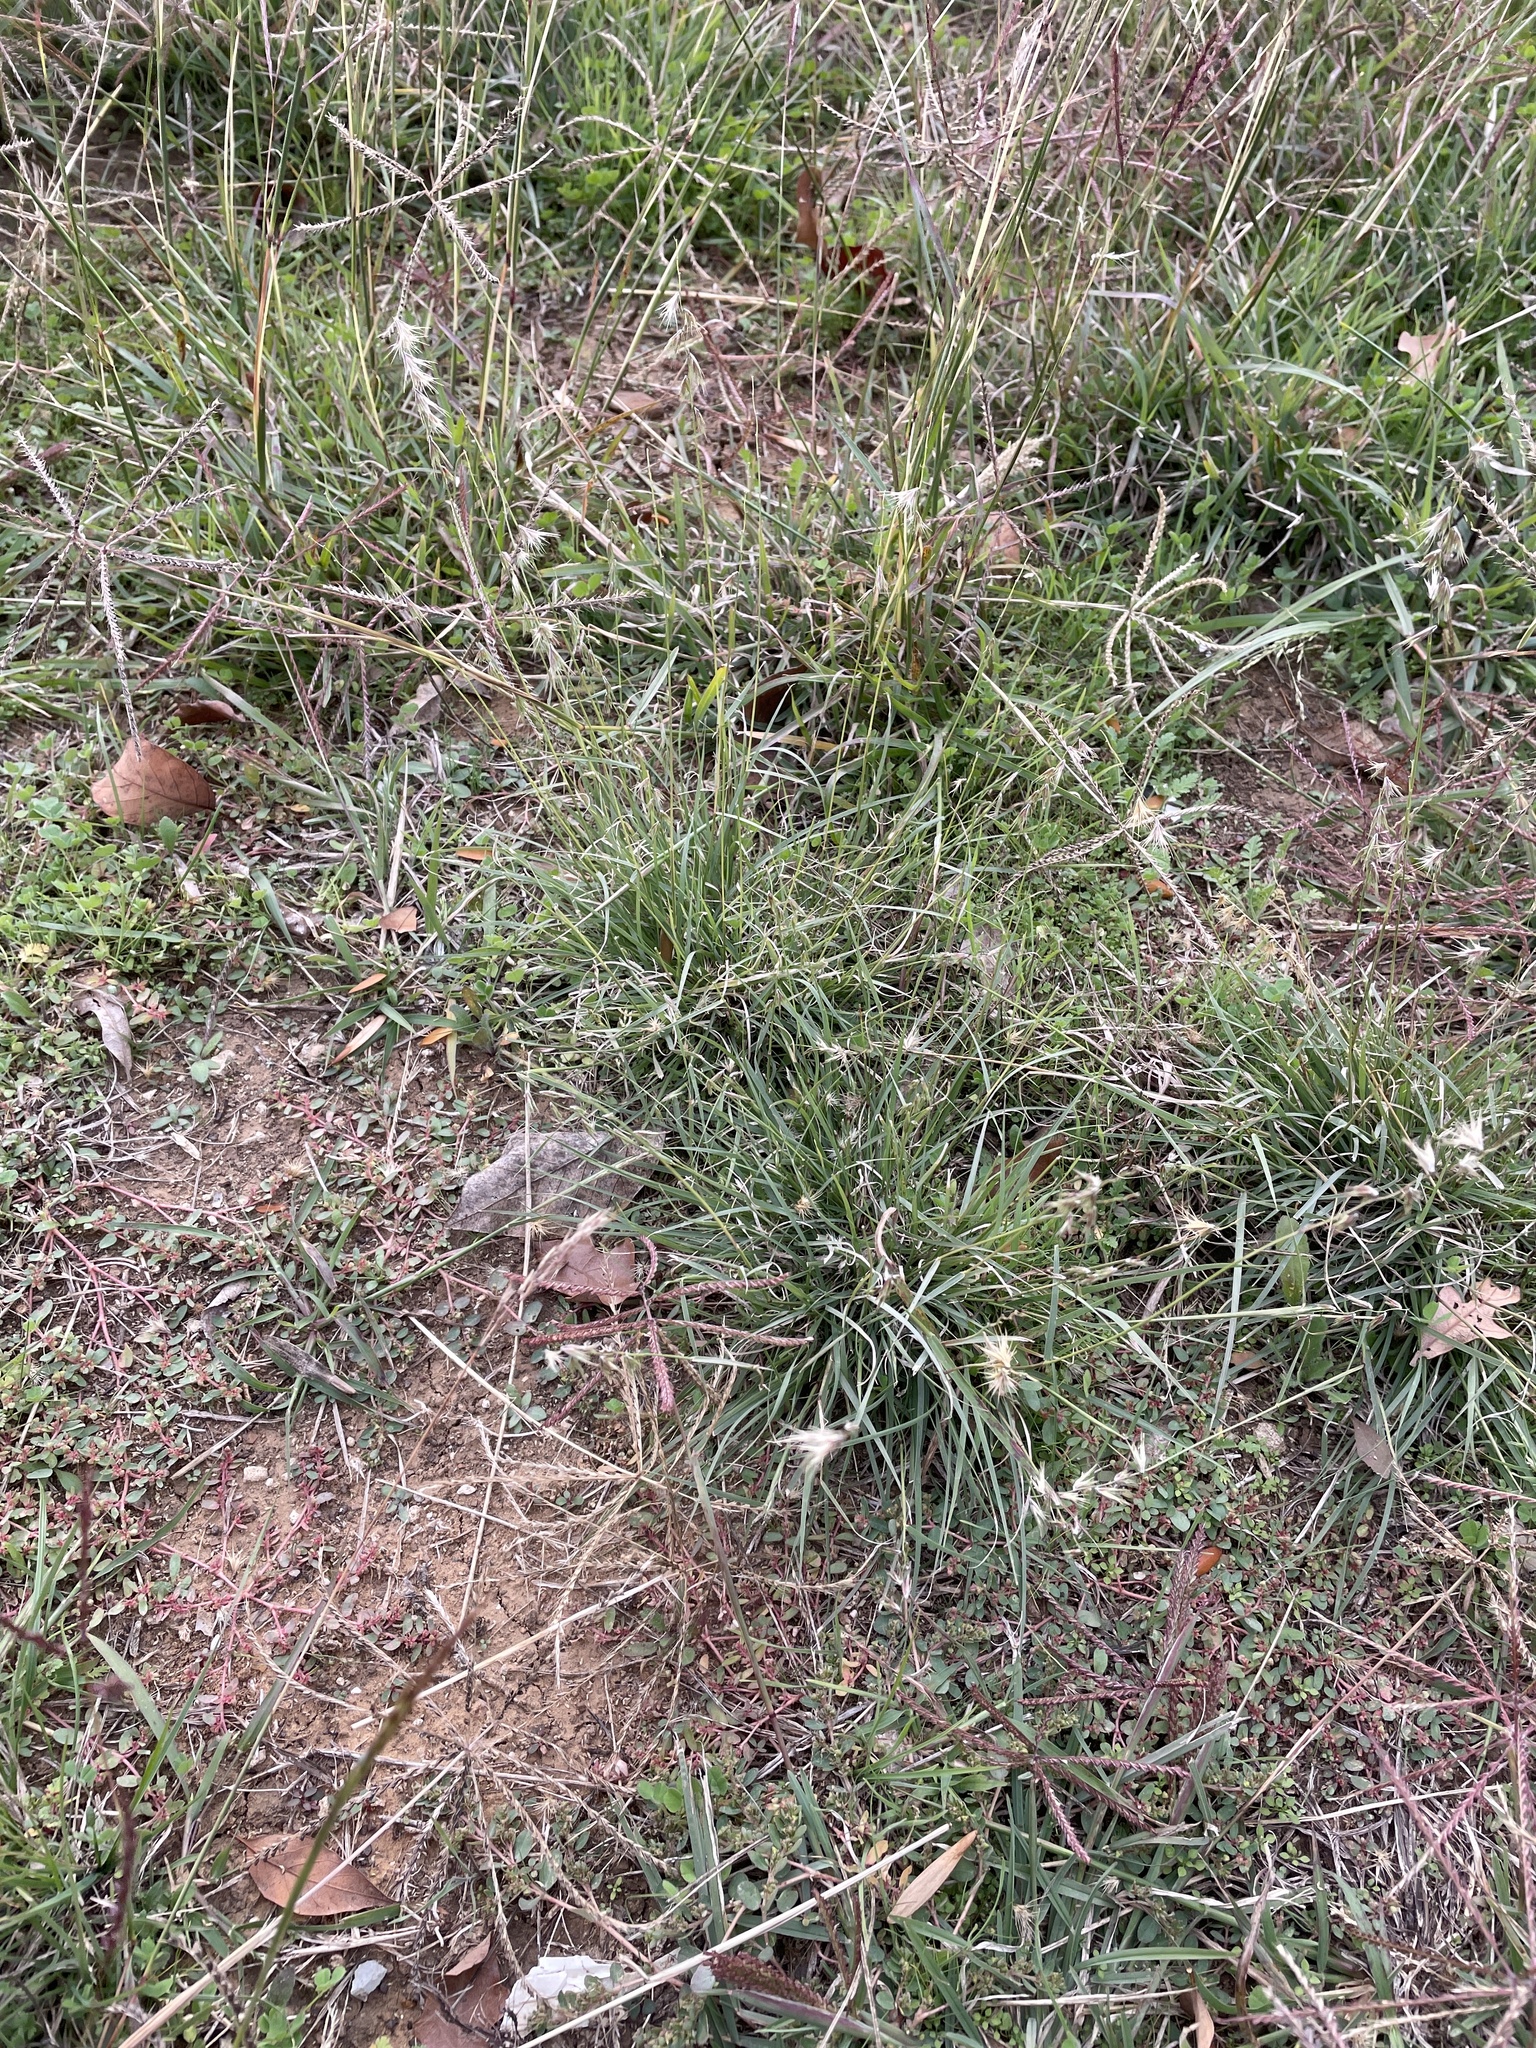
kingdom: Plantae
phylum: Tracheophyta
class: Liliopsida
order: Poales
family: Poaceae
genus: Bouteloua
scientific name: Bouteloua rigidiseta
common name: Texas grama
